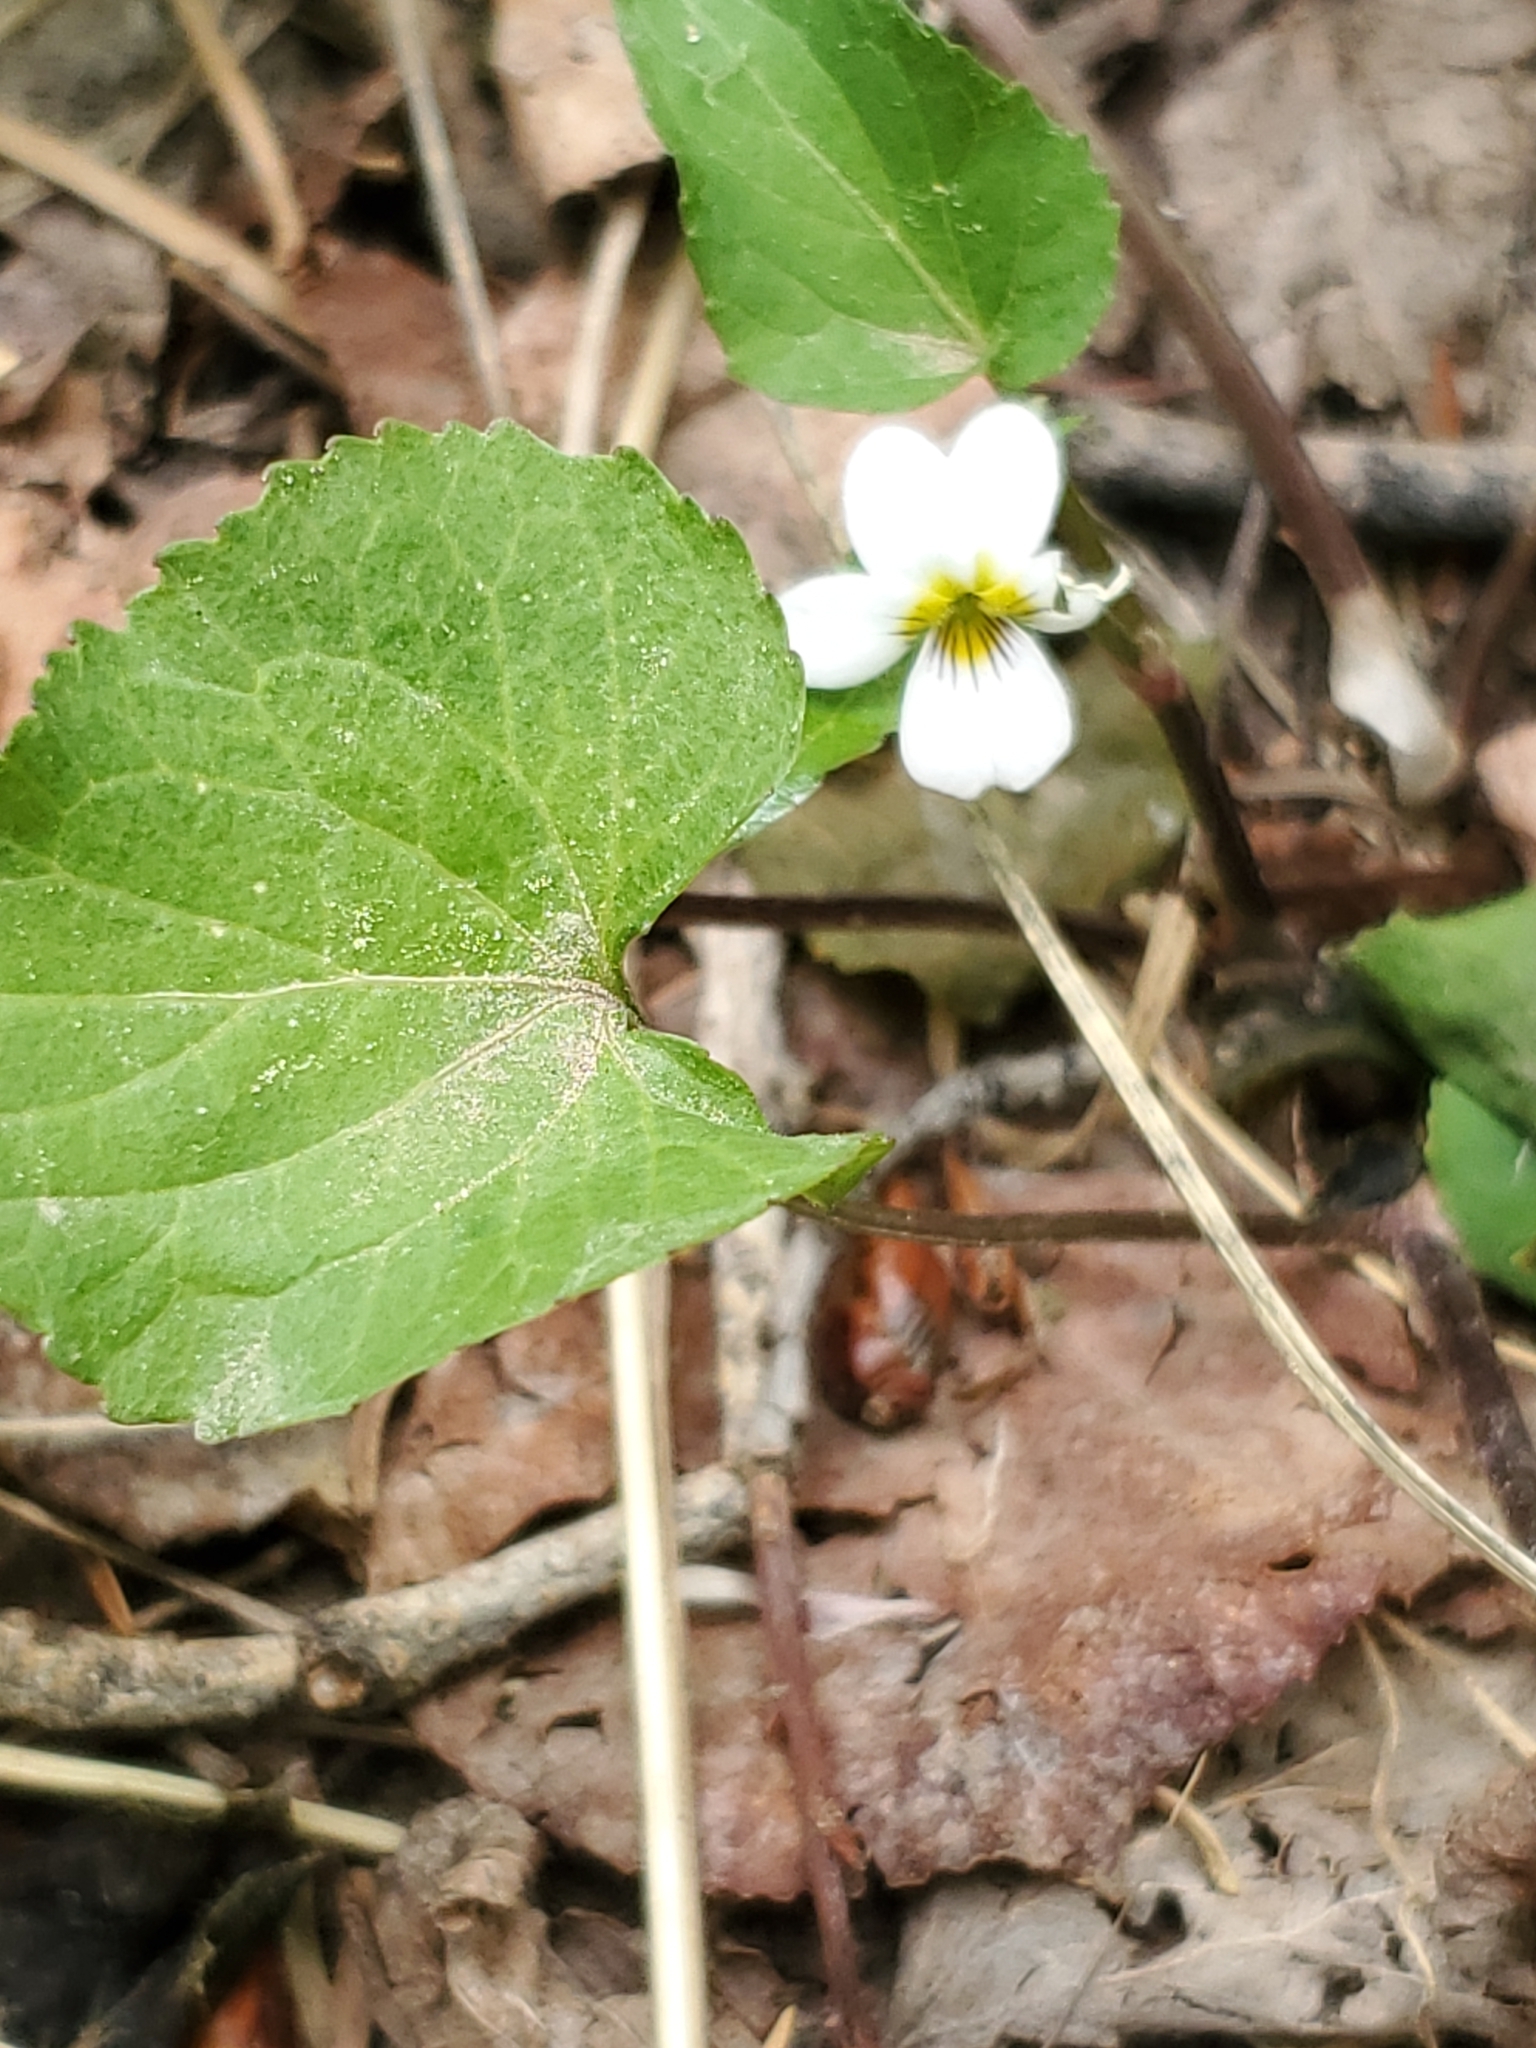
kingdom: Plantae
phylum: Tracheophyta
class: Magnoliopsida
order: Malpighiales
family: Violaceae
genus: Viola
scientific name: Viola canadensis
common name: Canada violet
